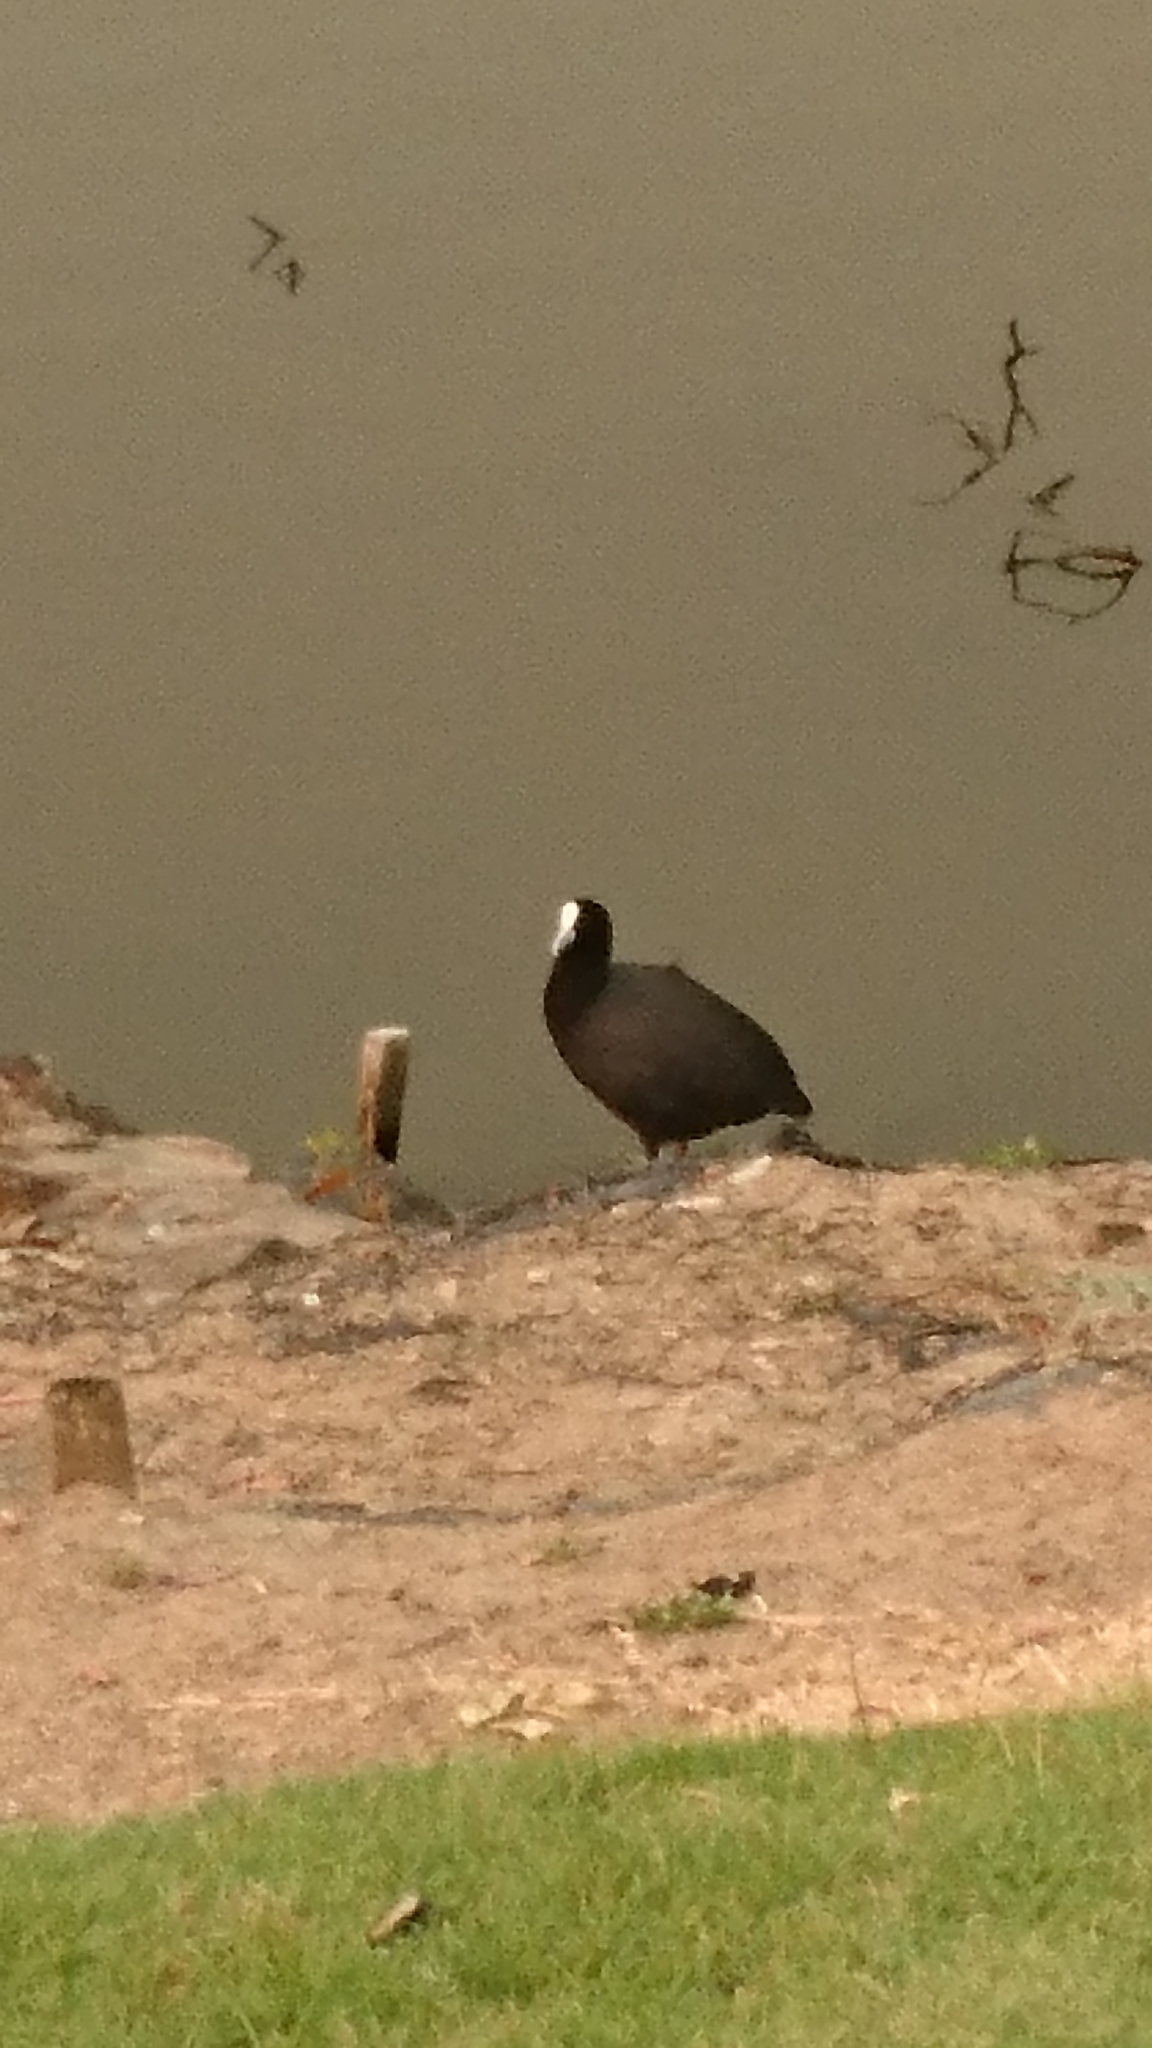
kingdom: Animalia
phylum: Chordata
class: Aves
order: Gruiformes
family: Rallidae
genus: Fulica
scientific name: Fulica atra
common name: Eurasian coot
